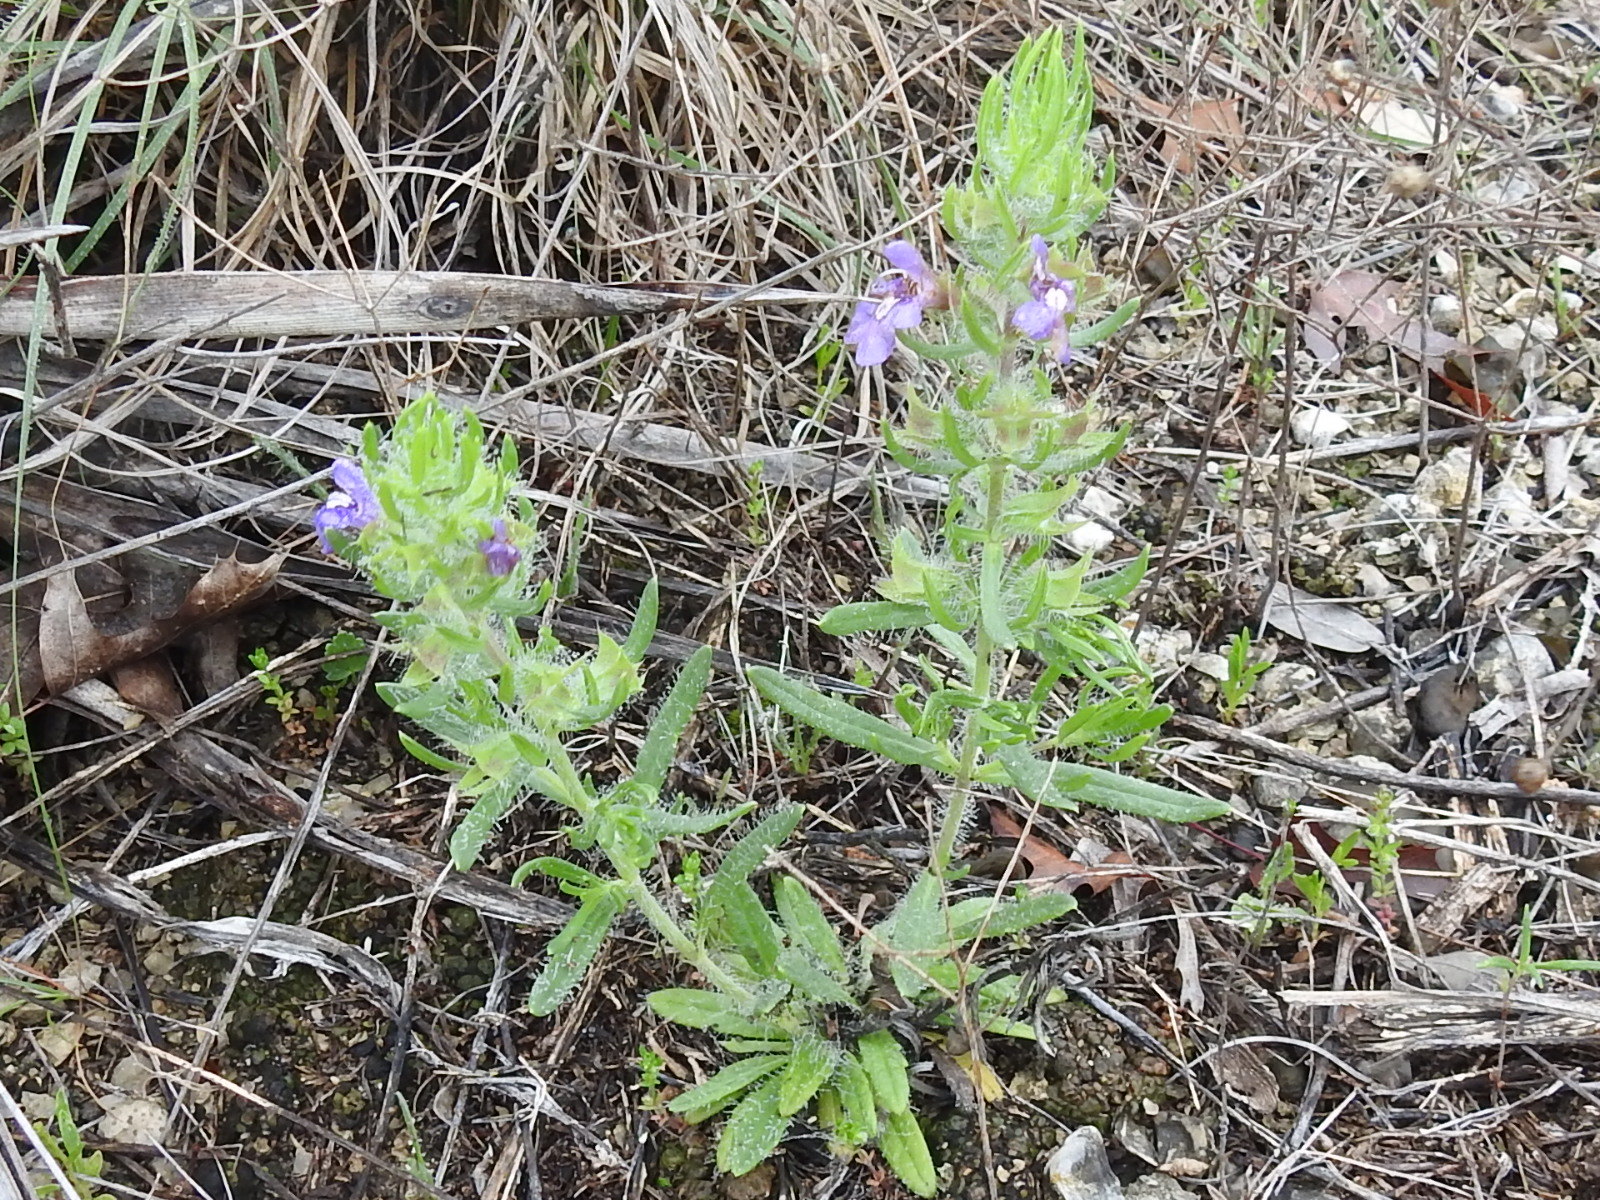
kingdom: Plantae
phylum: Tracheophyta
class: Magnoliopsida
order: Lamiales
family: Lamiaceae
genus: Salvia
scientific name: Salvia texana
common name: Texas sage
